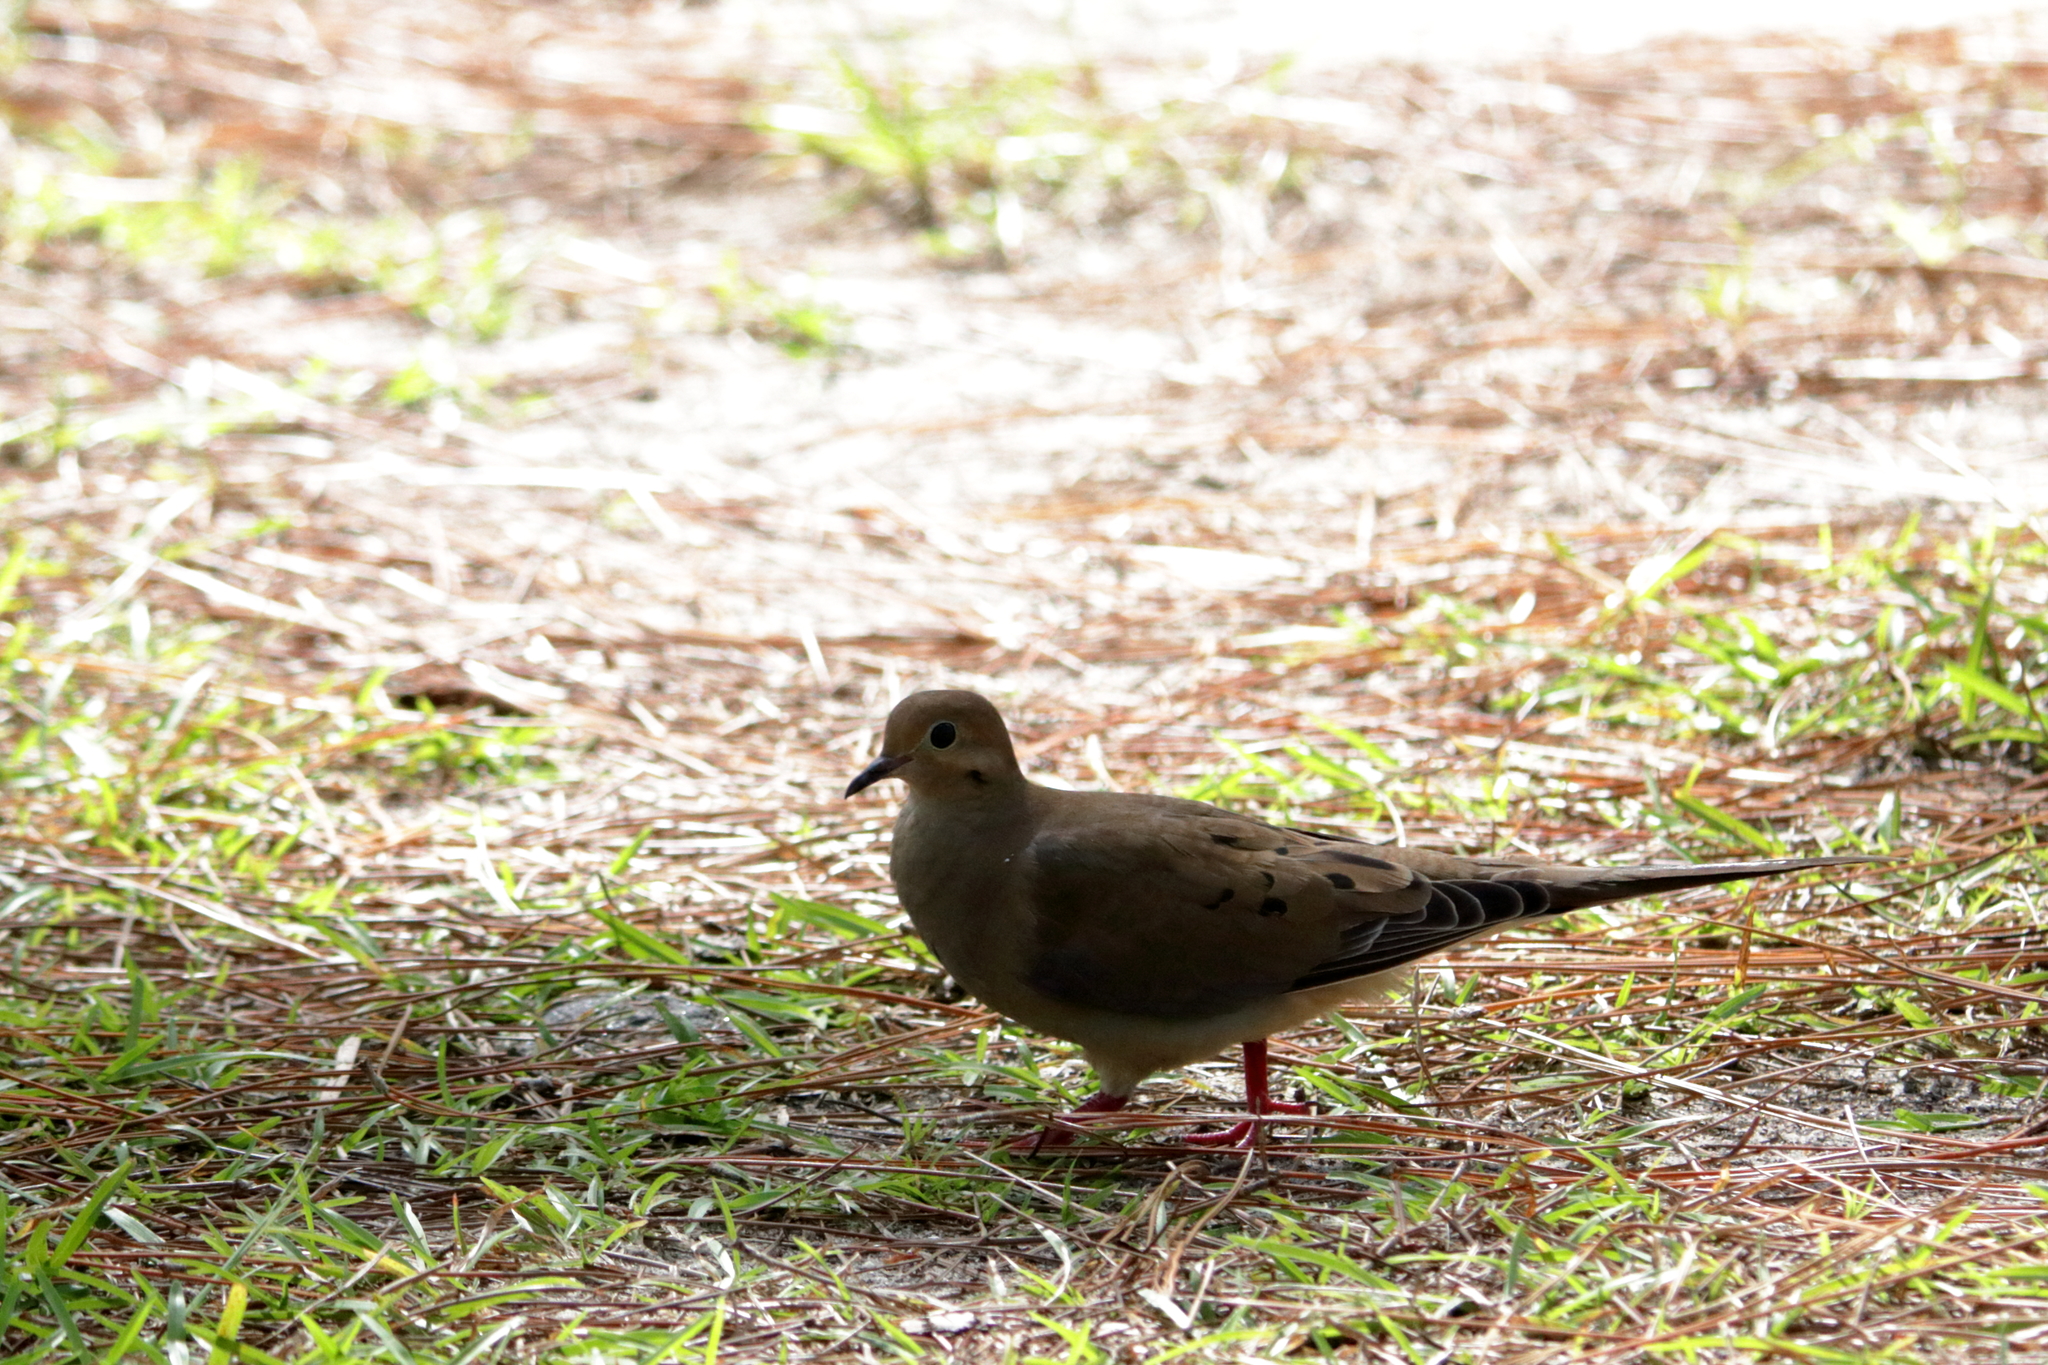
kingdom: Animalia
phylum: Chordata
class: Aves
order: Columbiformes
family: Columbidae
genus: Zenaida
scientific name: Zenaida macroura
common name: Mourning dove
